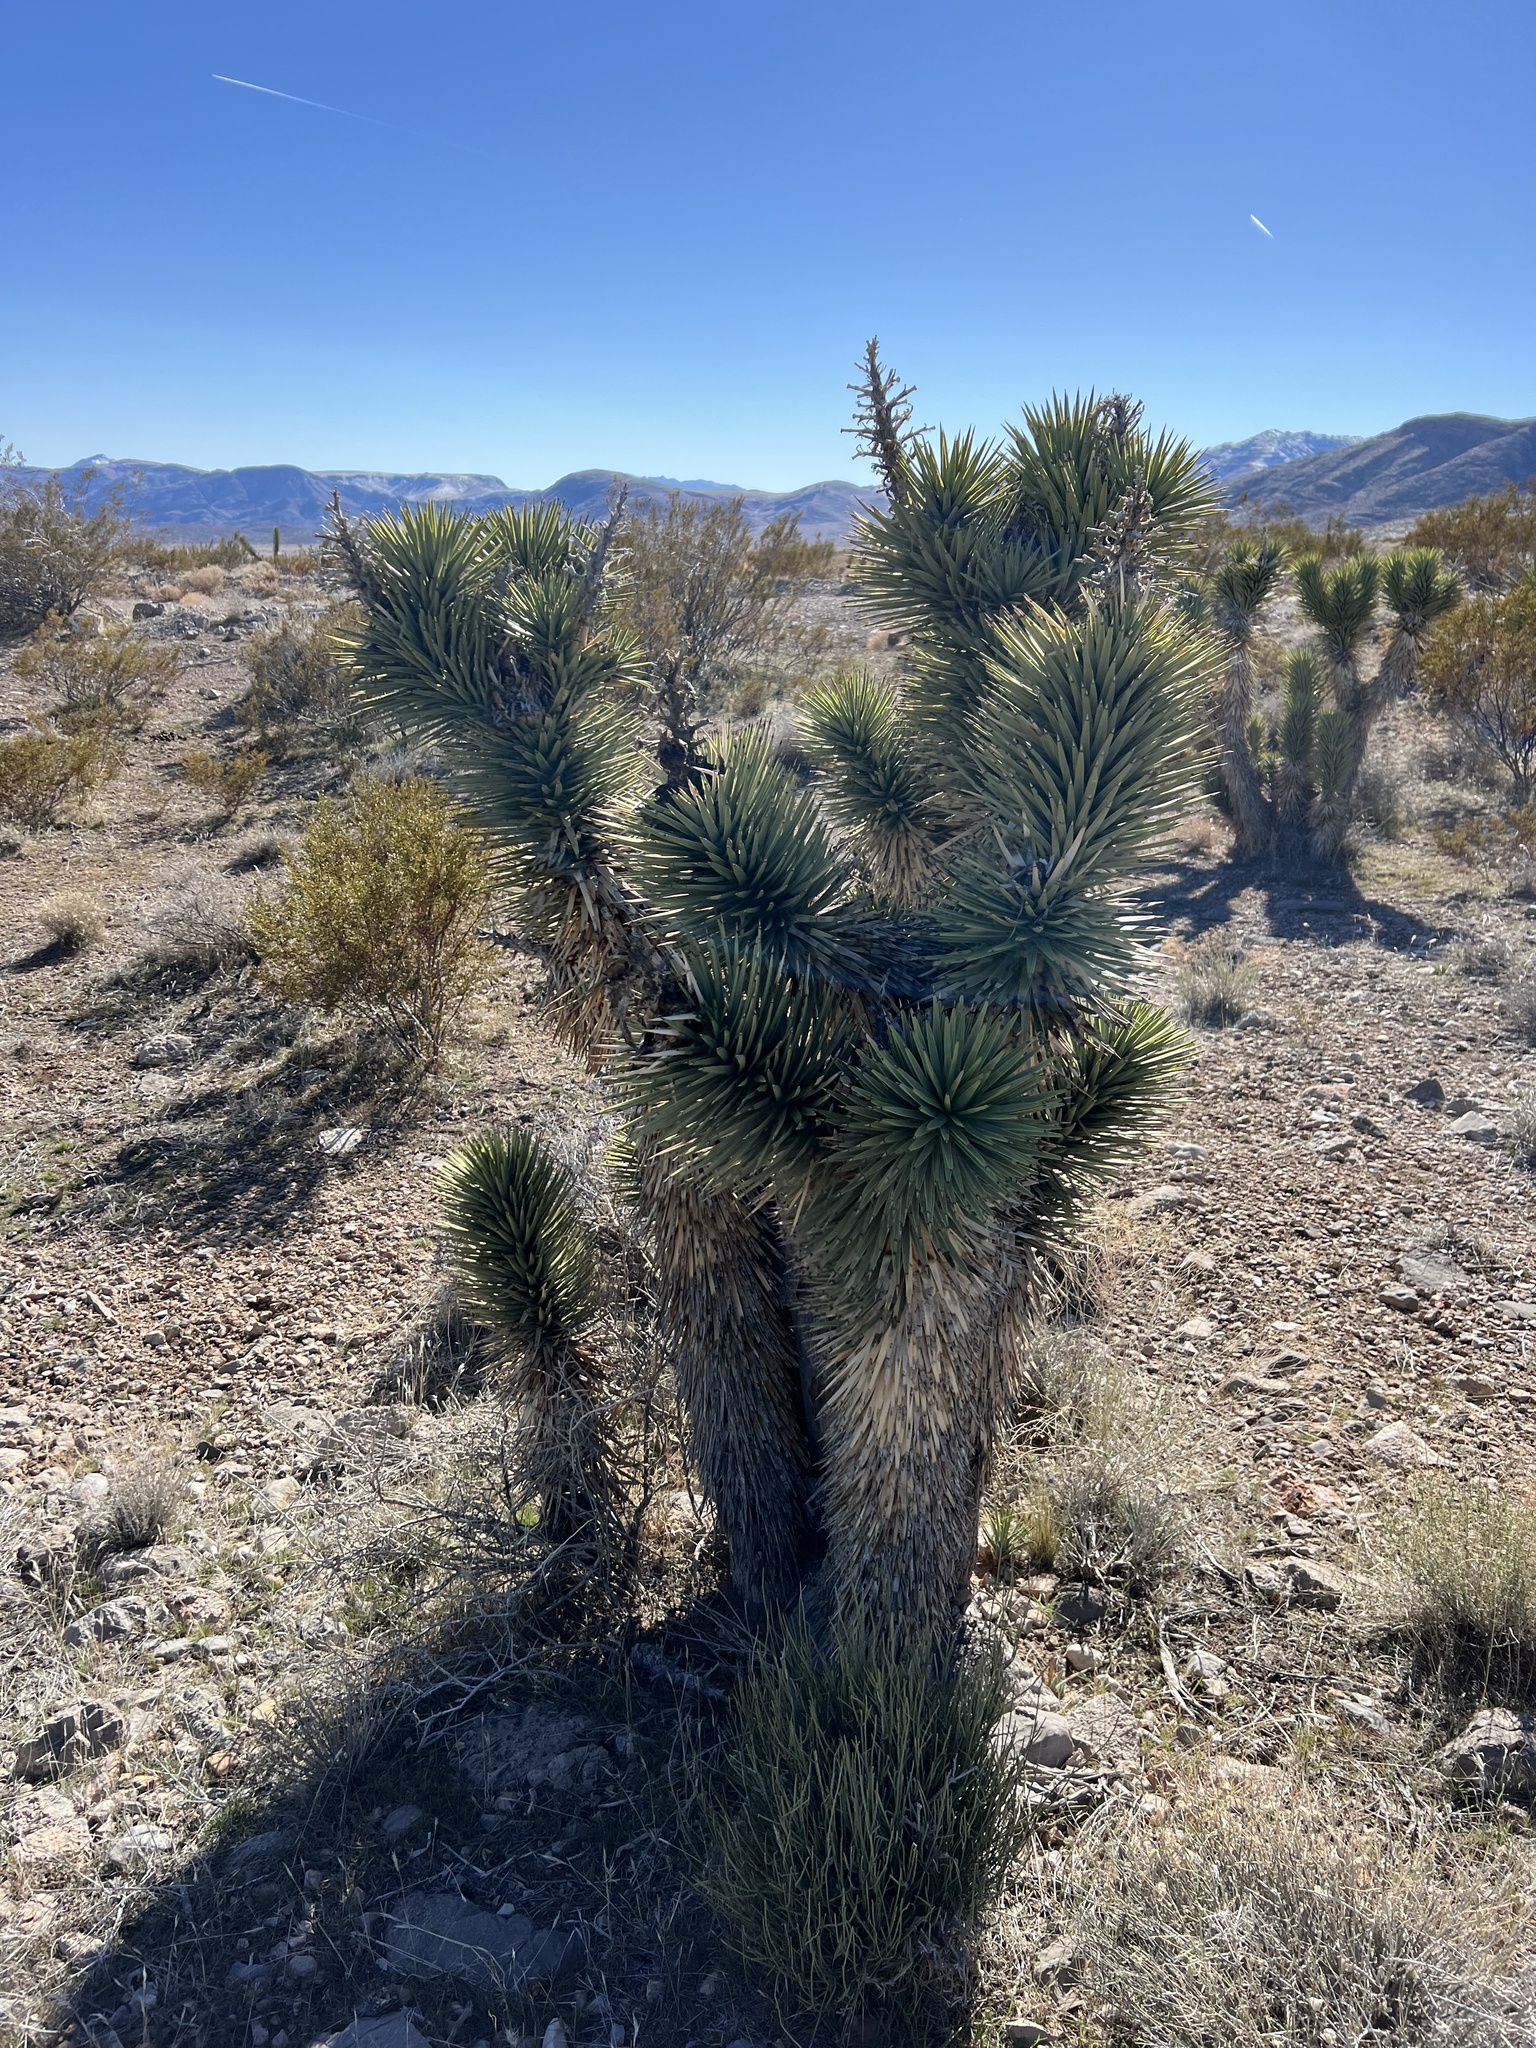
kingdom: Plantae
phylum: Tracheophyta
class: Liliopsida
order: Asparagales
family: Asparagaceae
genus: Yucca
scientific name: Yucca brevifolia
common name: Joshua tree
